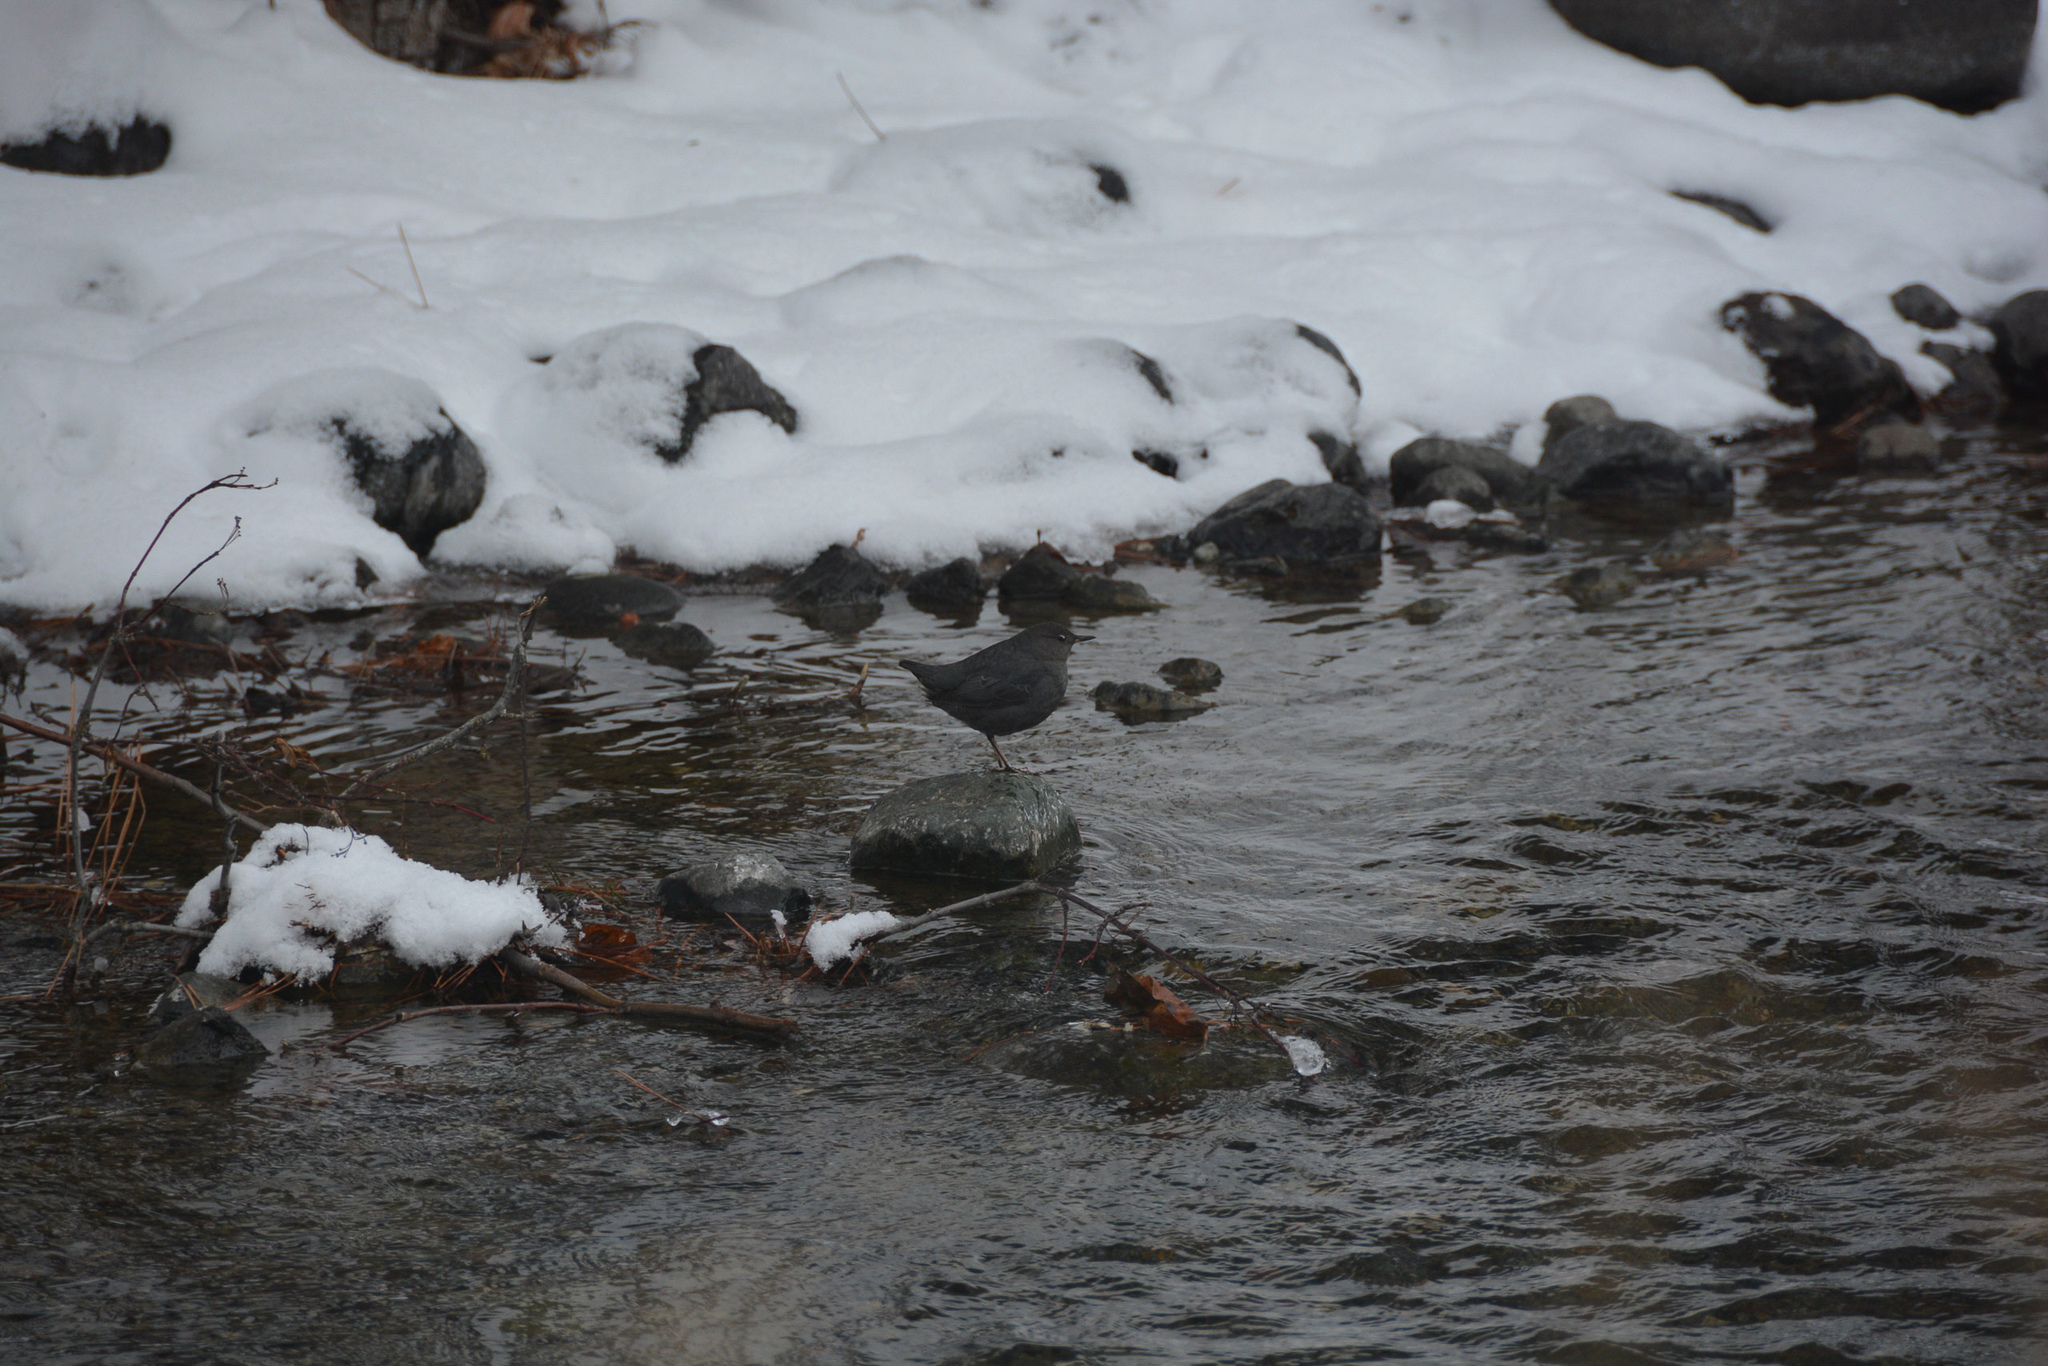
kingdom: Animalia
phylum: Chordata
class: Aves
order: Passeriformes
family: Cinclidae
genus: Cinclus
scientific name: Cinclus mexicanus
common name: American dipper
